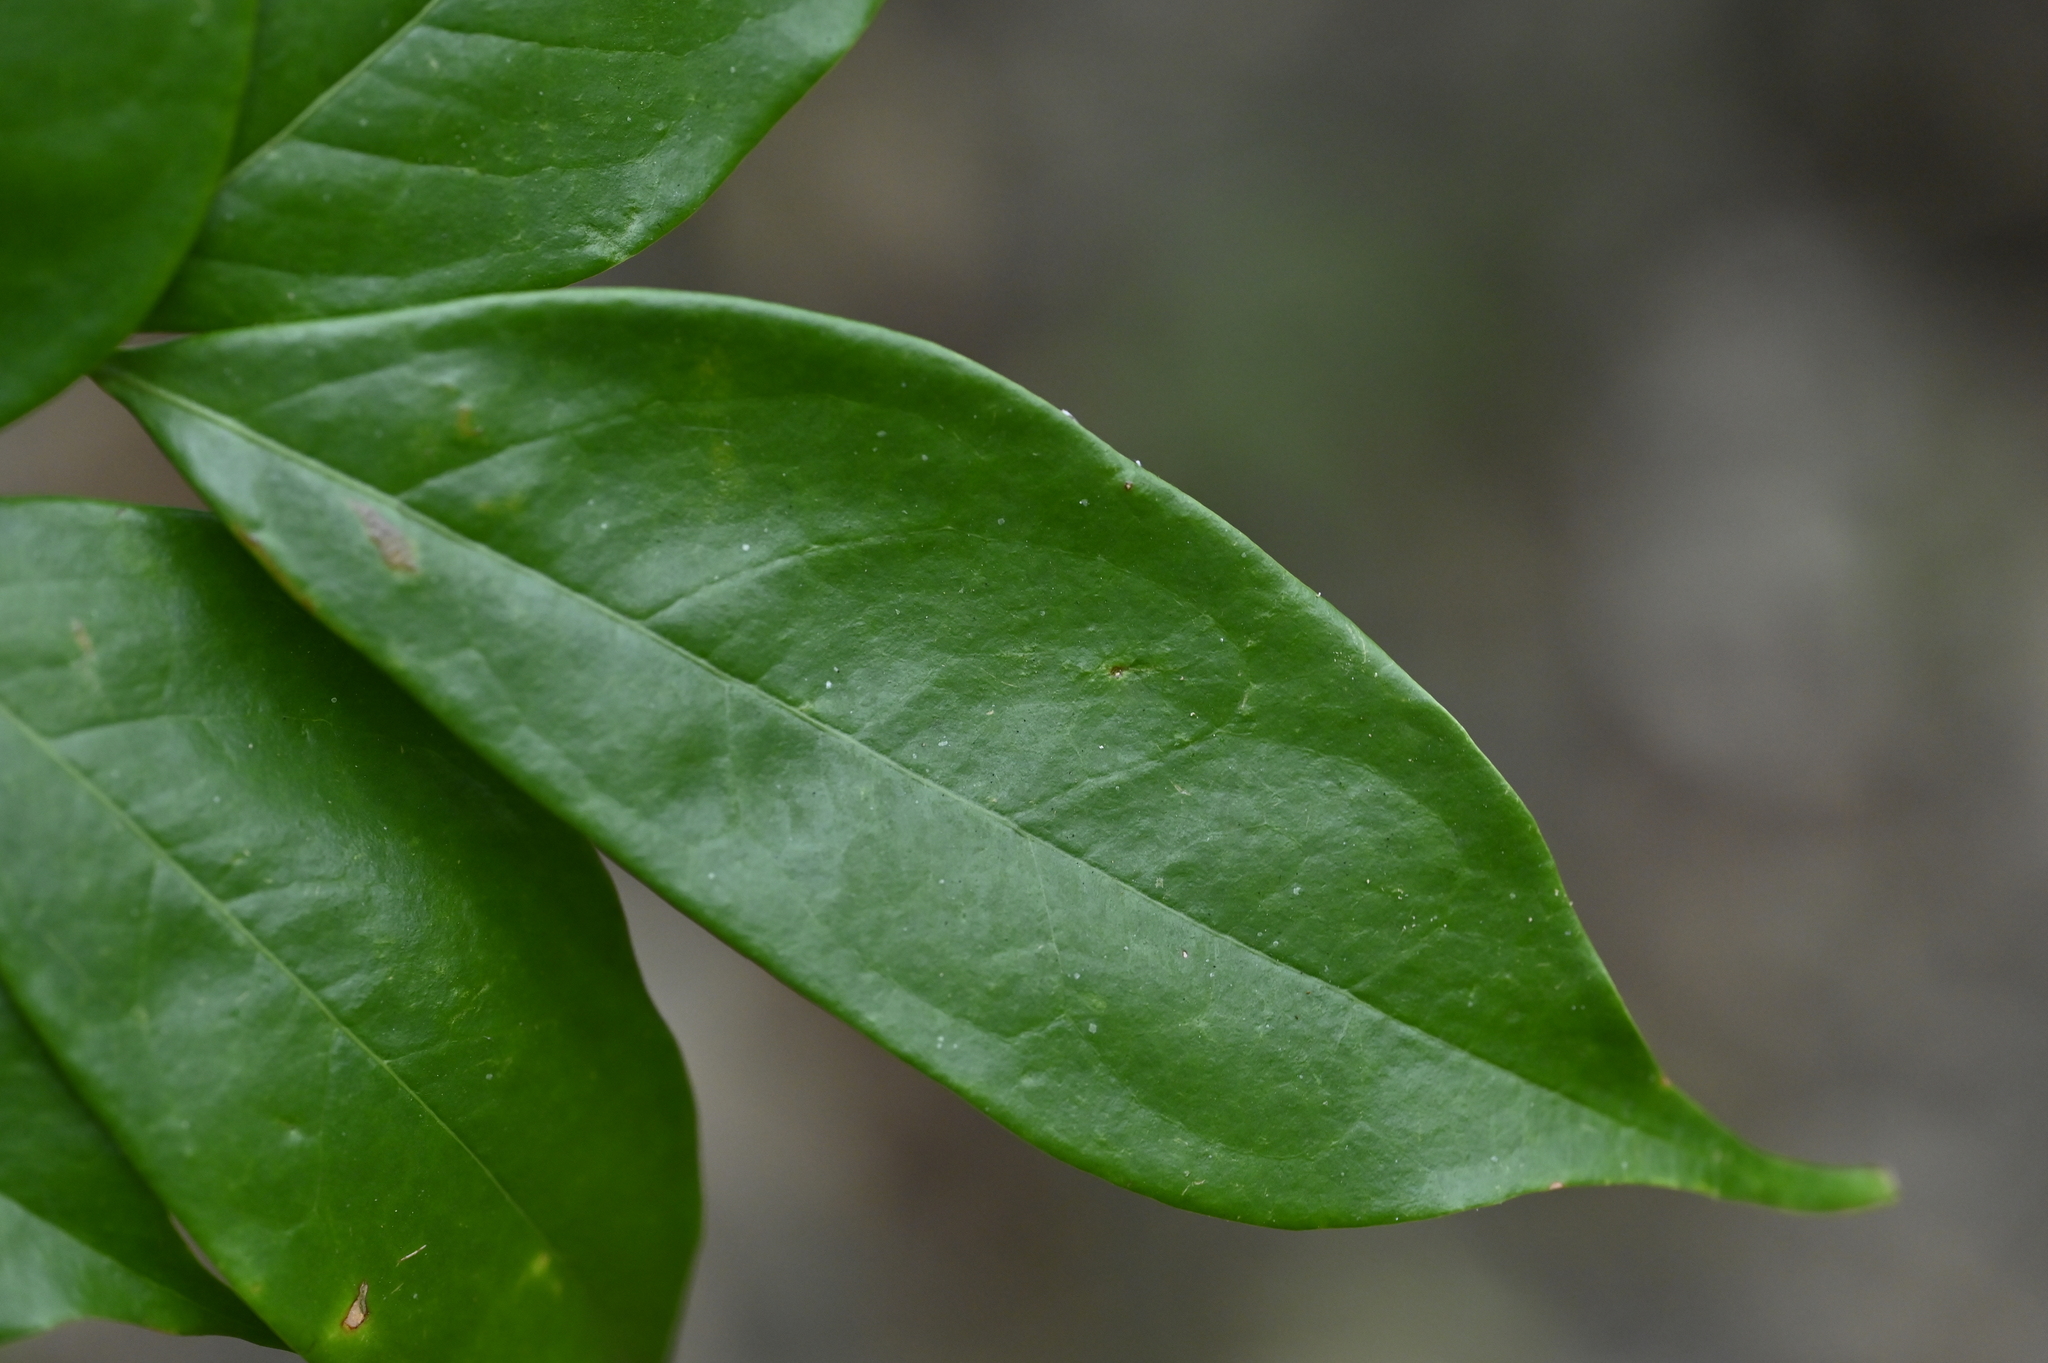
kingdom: Plantae
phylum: Tracheophyta
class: Magnoliopsida
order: Fabales
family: Fabaceae
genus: Archidendron
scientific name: Archidendron lucidum
